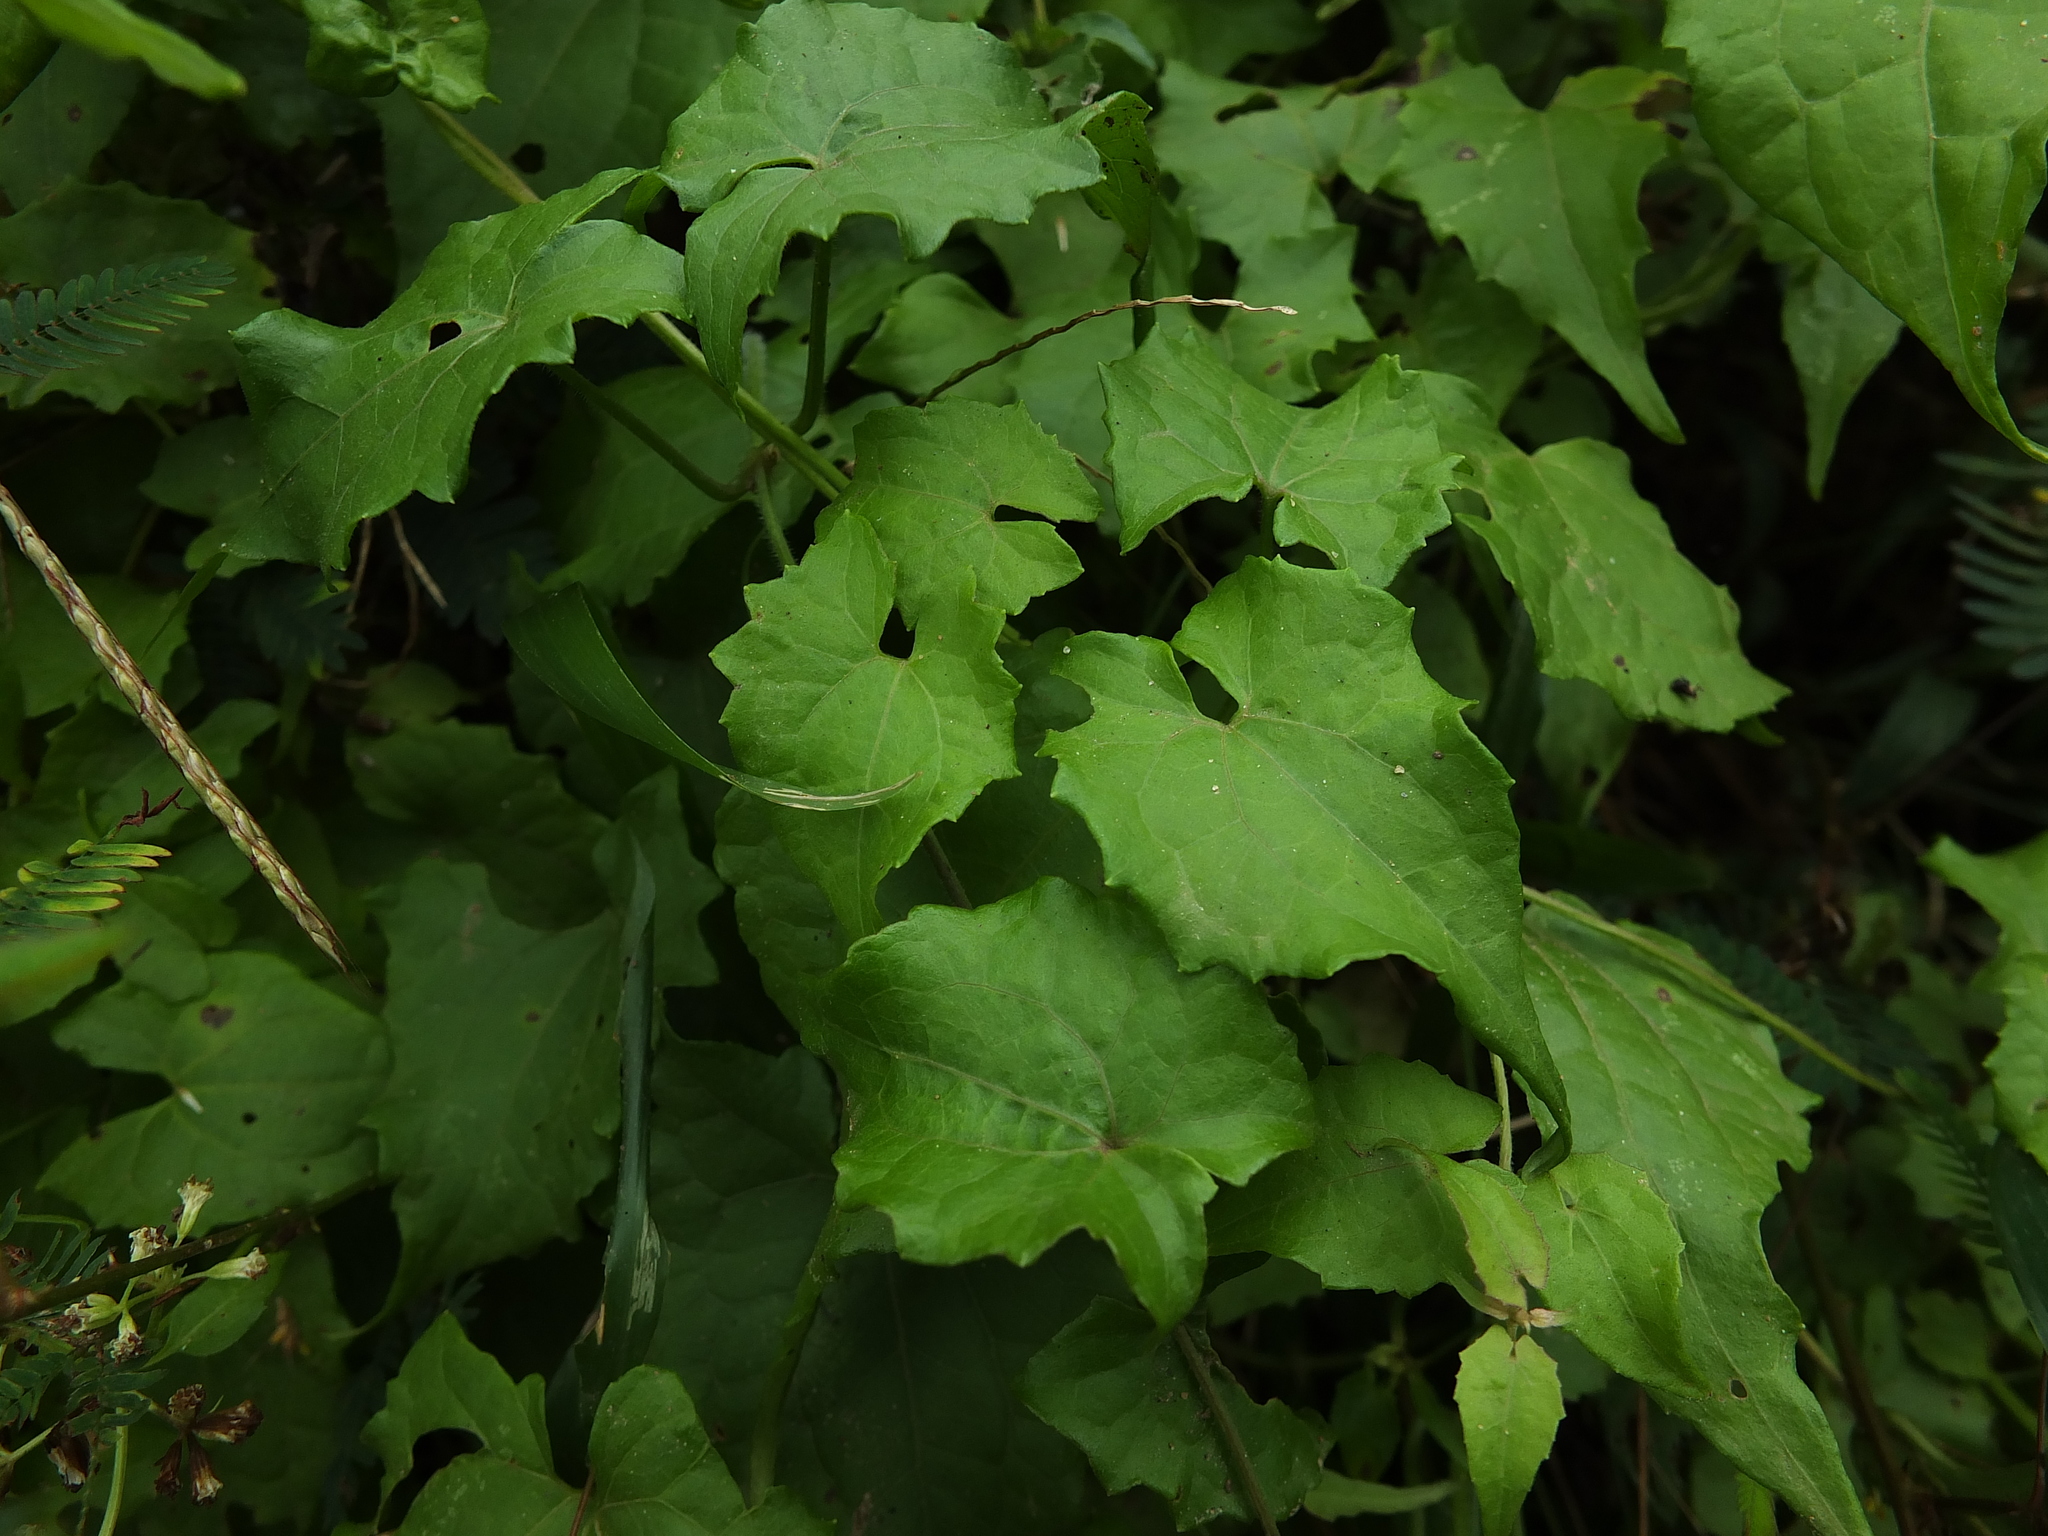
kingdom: Plantae
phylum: Tracheophyta
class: Magnoliopsida
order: Asterales
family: Asteraceae
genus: Mikania
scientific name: Mikania micrantha
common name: Mile-a-minute
